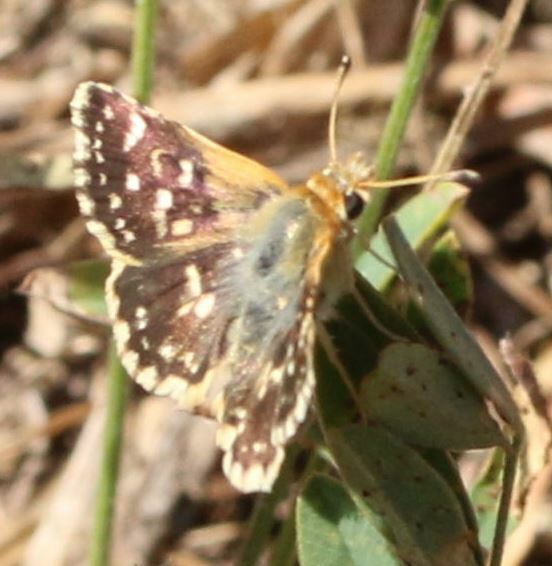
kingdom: Animalia
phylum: Arthropoda
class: Insecta
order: Lepidoptera
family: Hesperiidae
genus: Spialia
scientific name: Spialia sertorius
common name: Red underwing skipper
